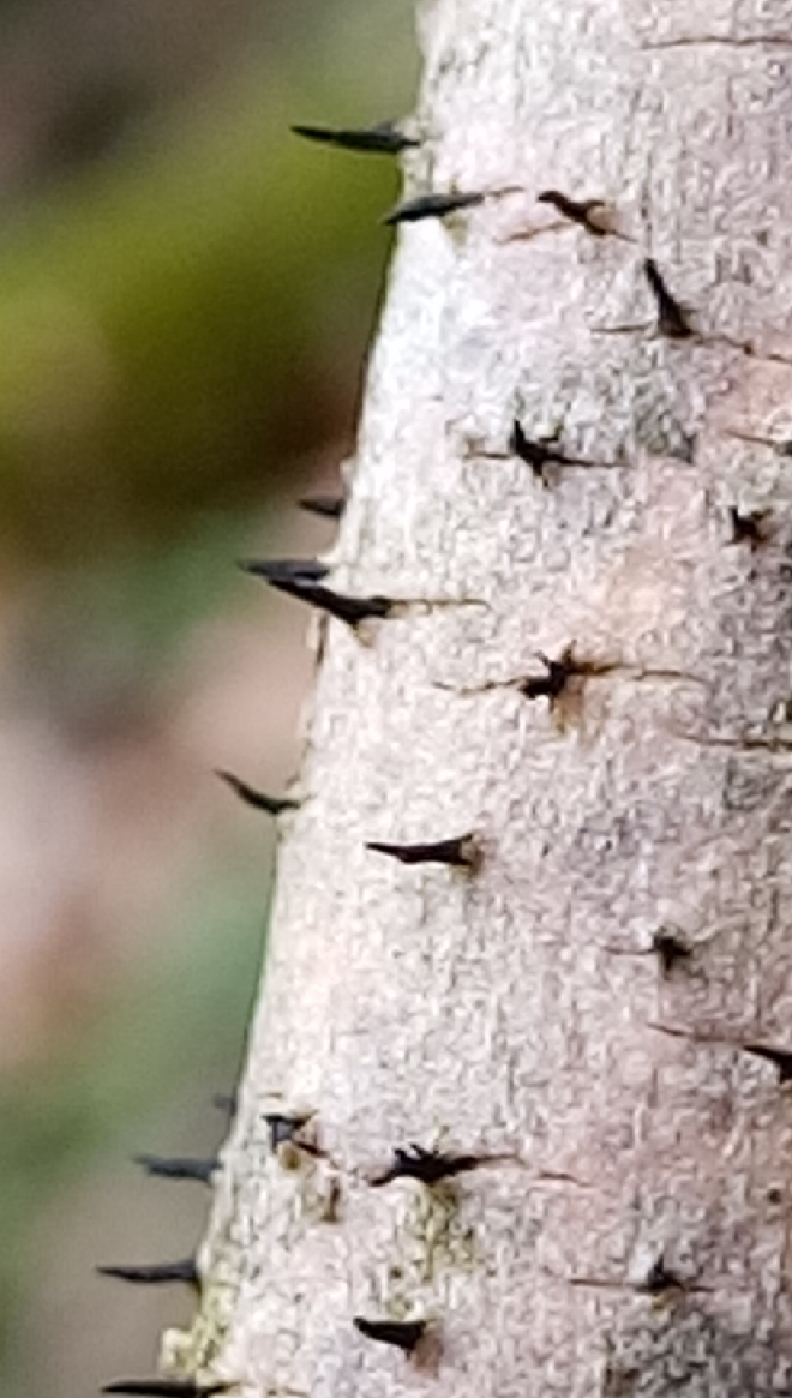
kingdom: Fungi
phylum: Ascomycota
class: Leotiomycetes
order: Leotiales
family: Tympanidaceae
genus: Durandiella
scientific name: Durandiella fraxini
